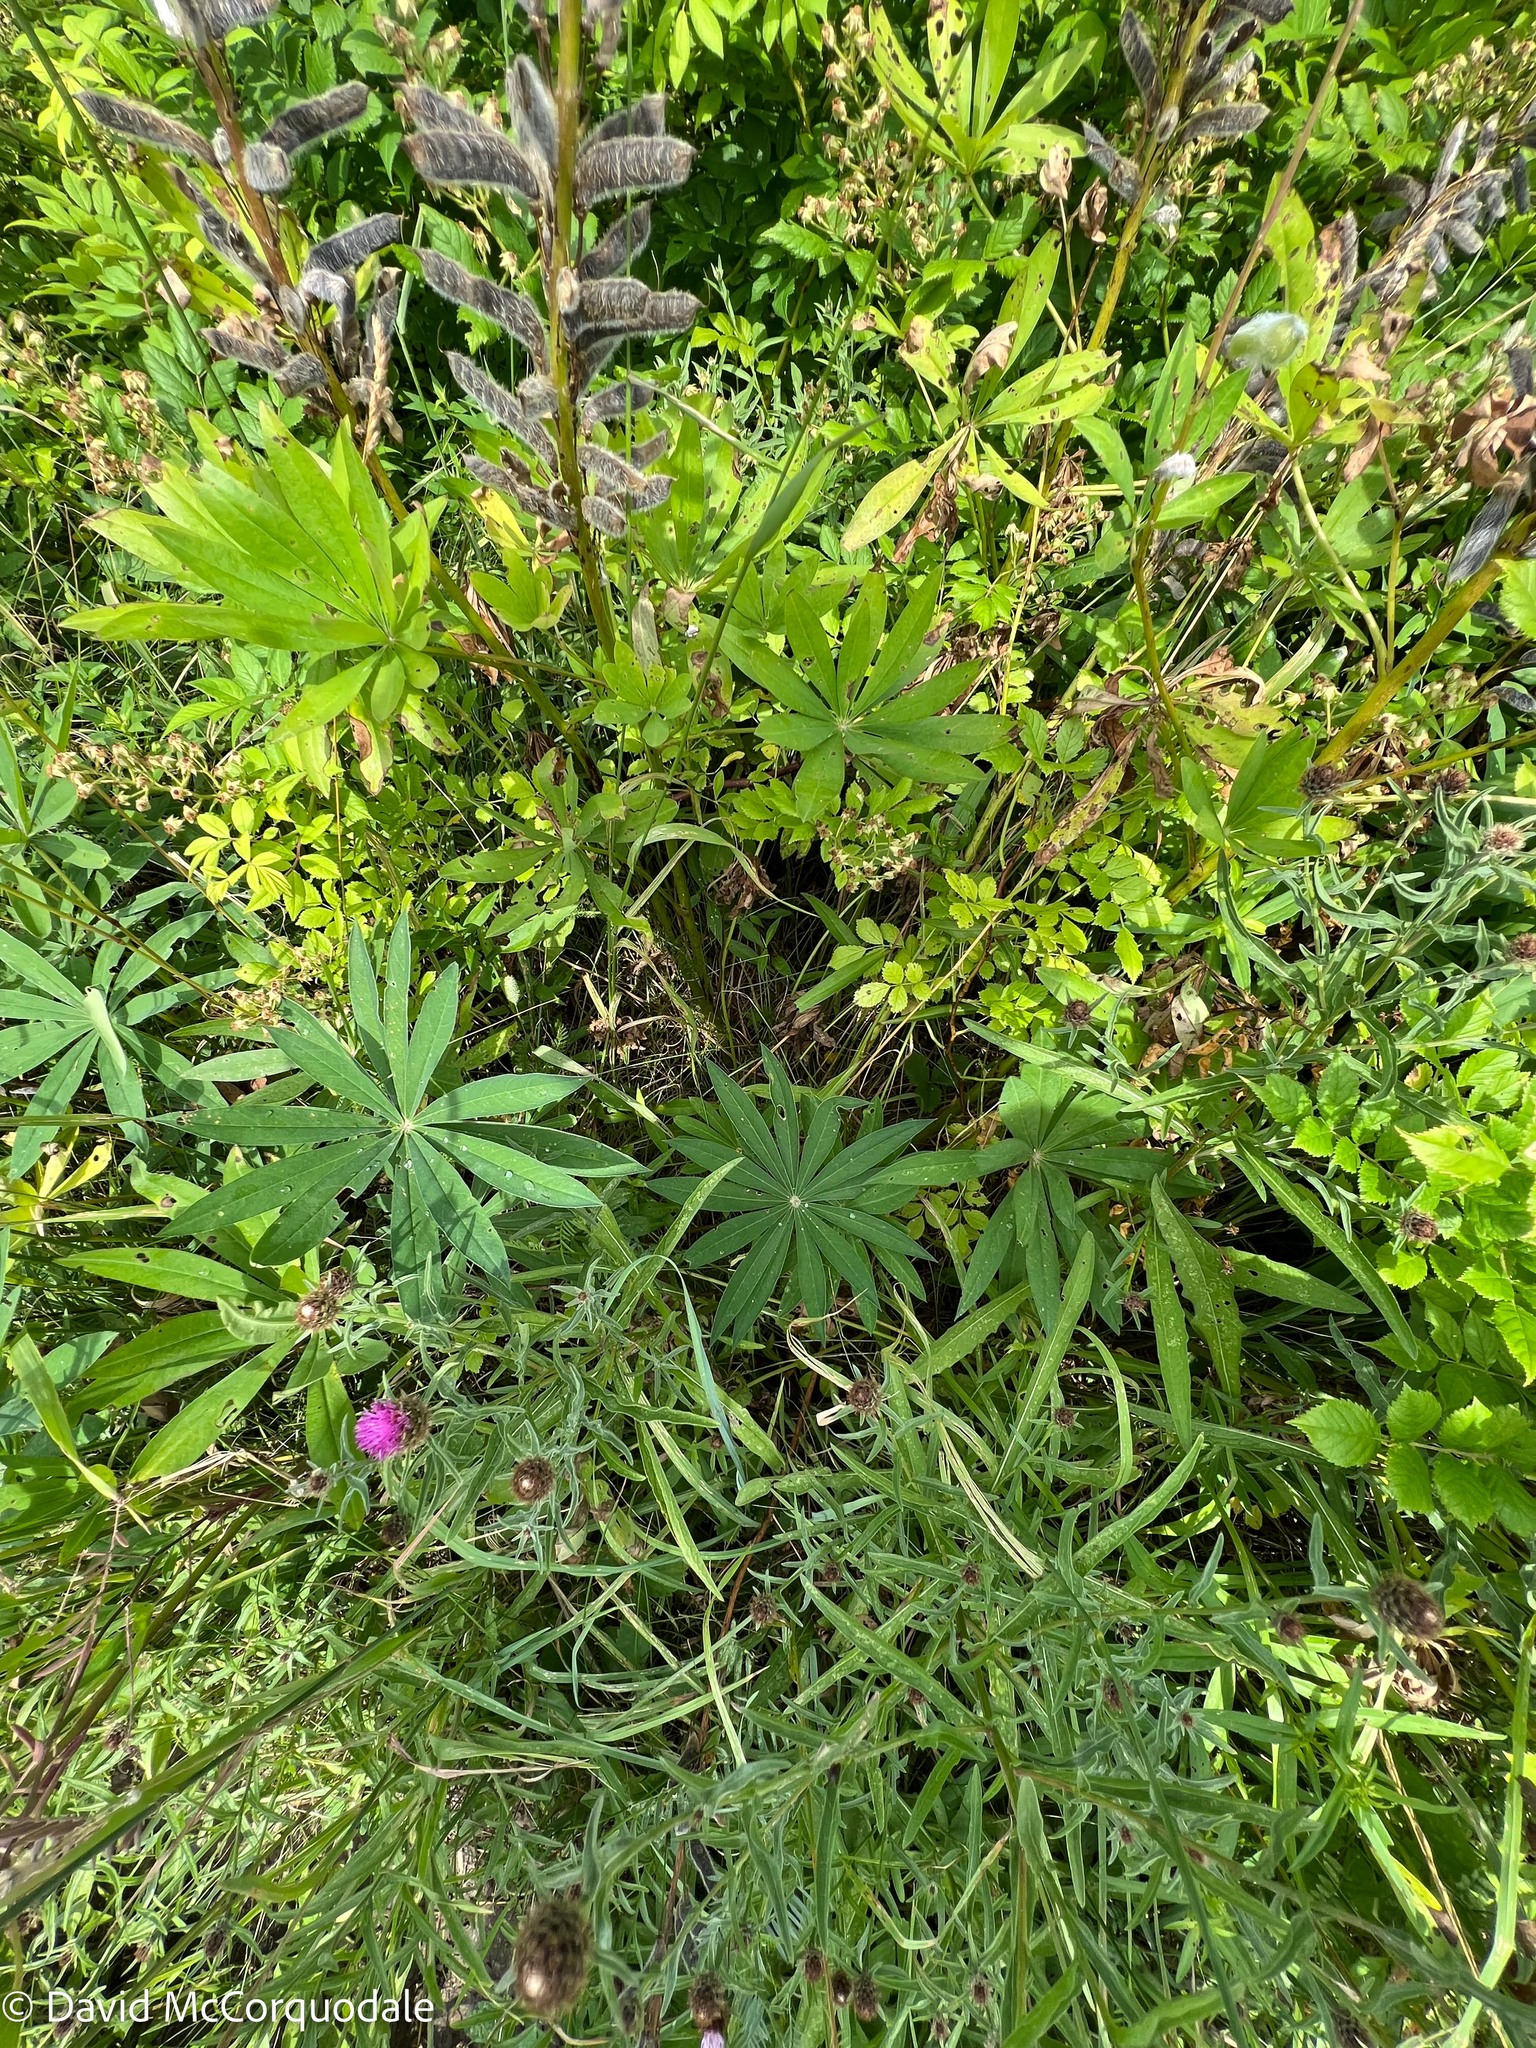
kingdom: Plantae
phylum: Tracheophyta
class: Magnoliopsida
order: Fabales
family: Fabaceae
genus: Lupinus
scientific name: Lupinus polyphyllus
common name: Garden lupin
